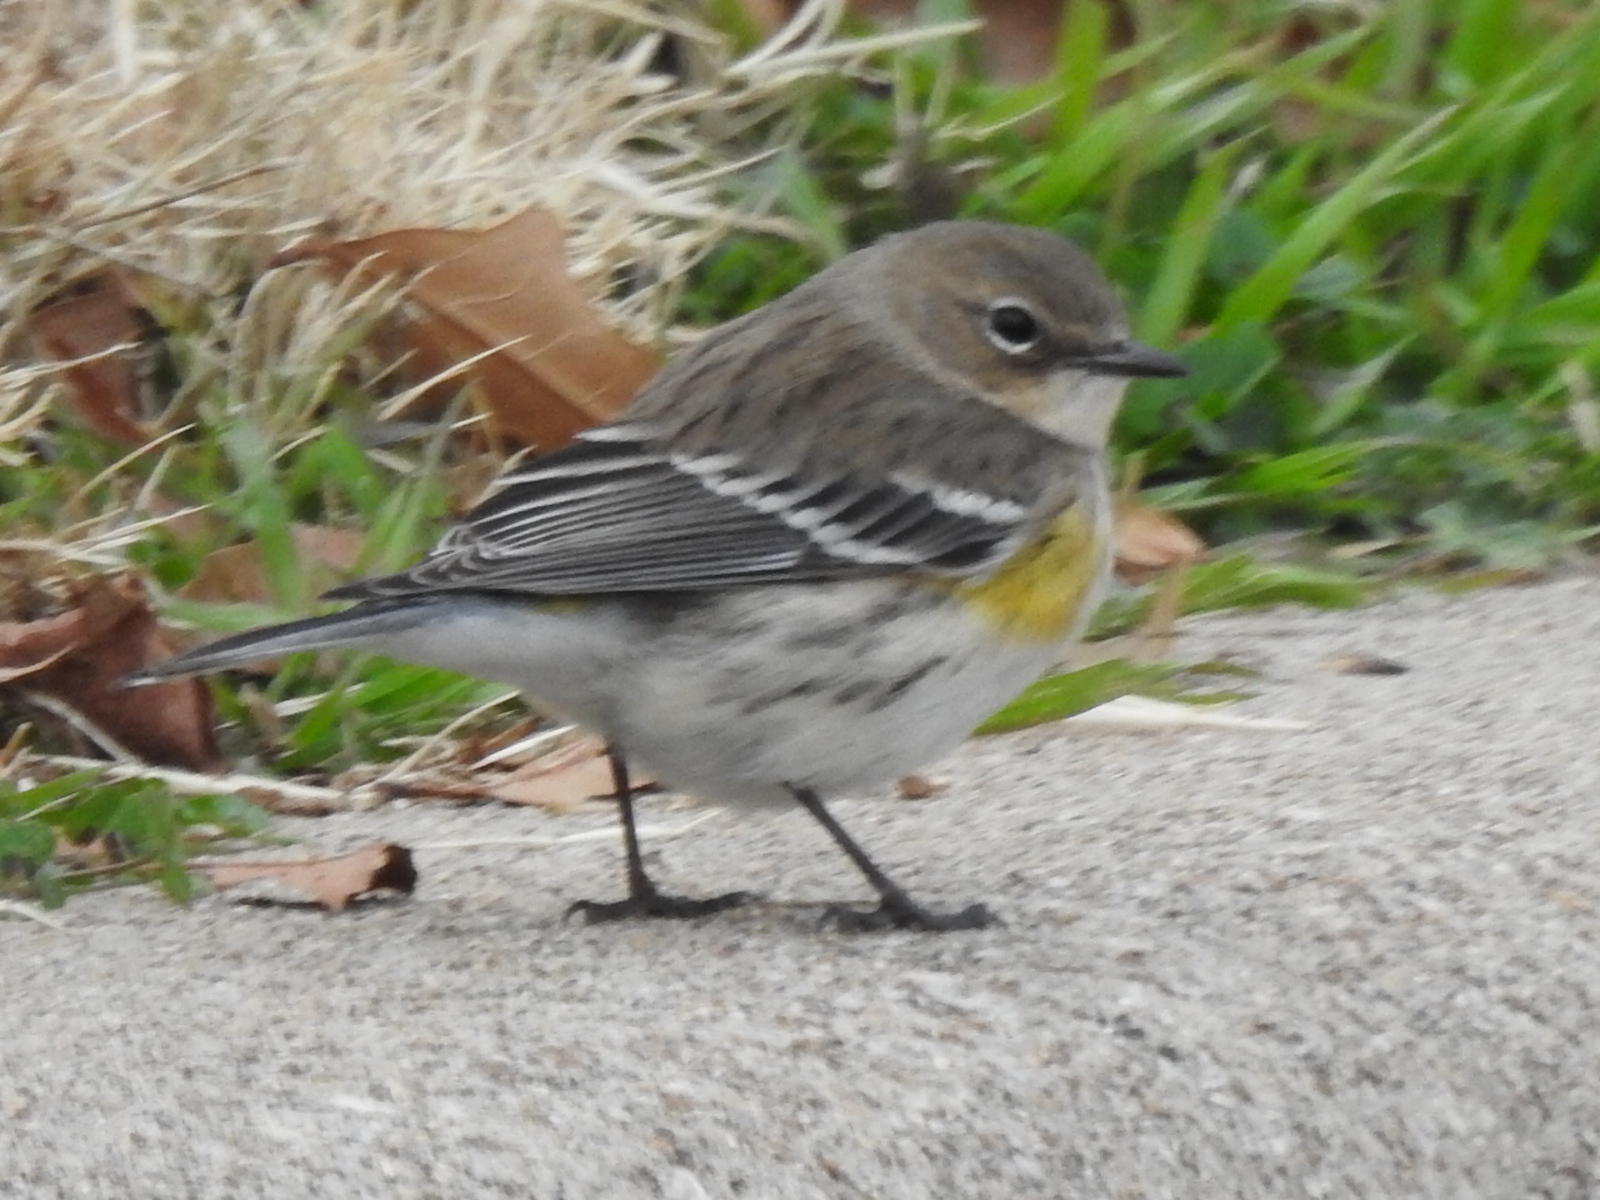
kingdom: Animalia
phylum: Chordata
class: Aves
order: Passeriformes
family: Parulidae
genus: Setophaga
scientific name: Setophaga coronata
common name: Myrtle warbler
